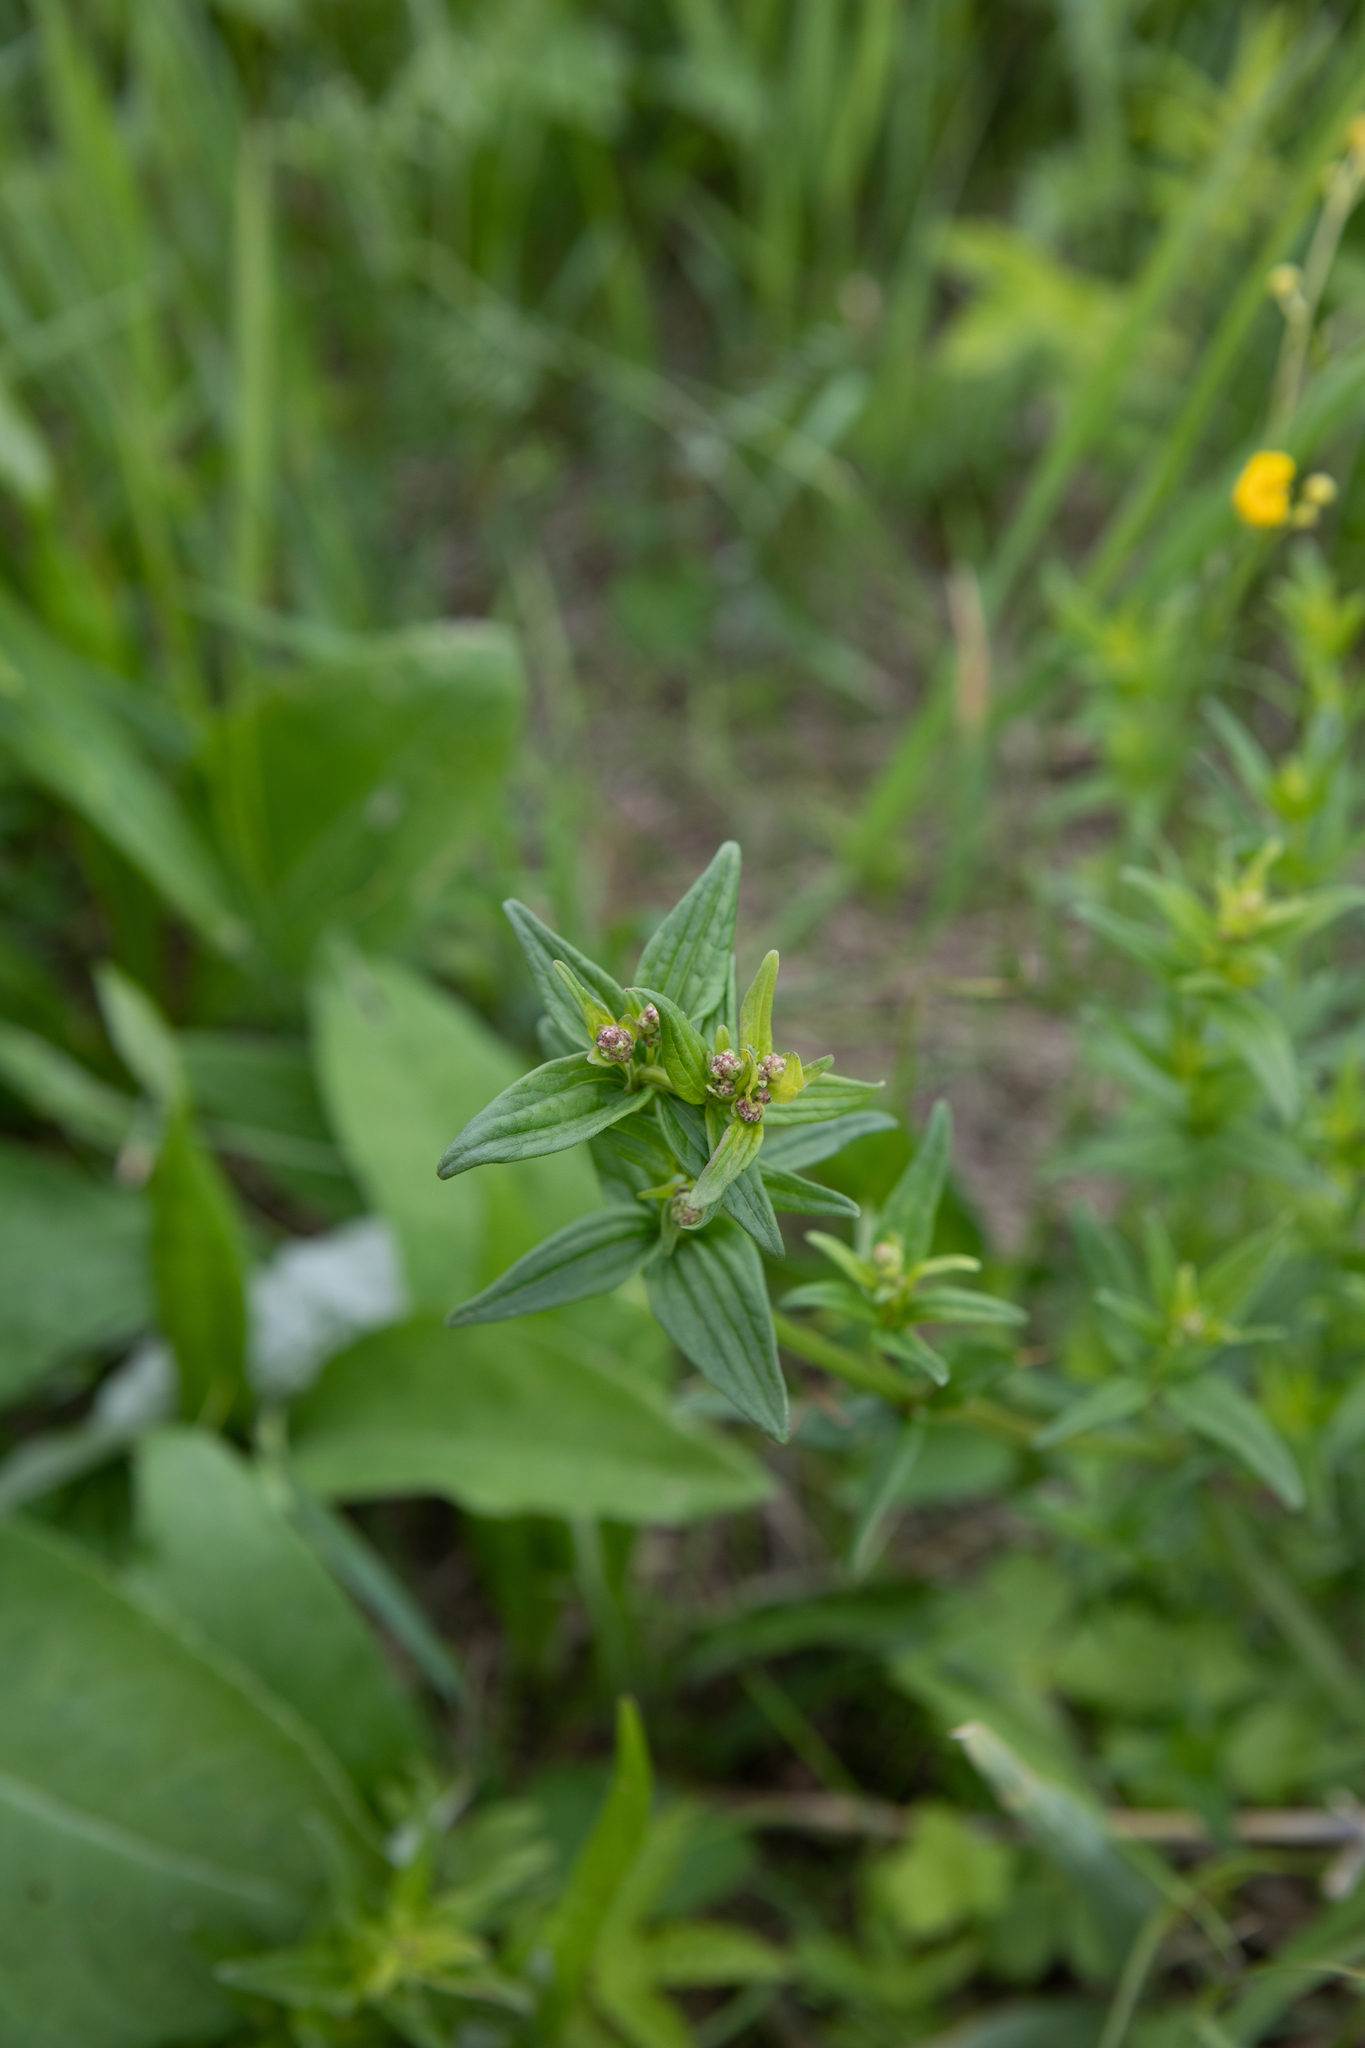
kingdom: Plantae
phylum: Tracheophyta
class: Magnoliopsida
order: Gentianales
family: Rubiaceae
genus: Galium
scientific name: Galium boreale
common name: Northern bedstraw
